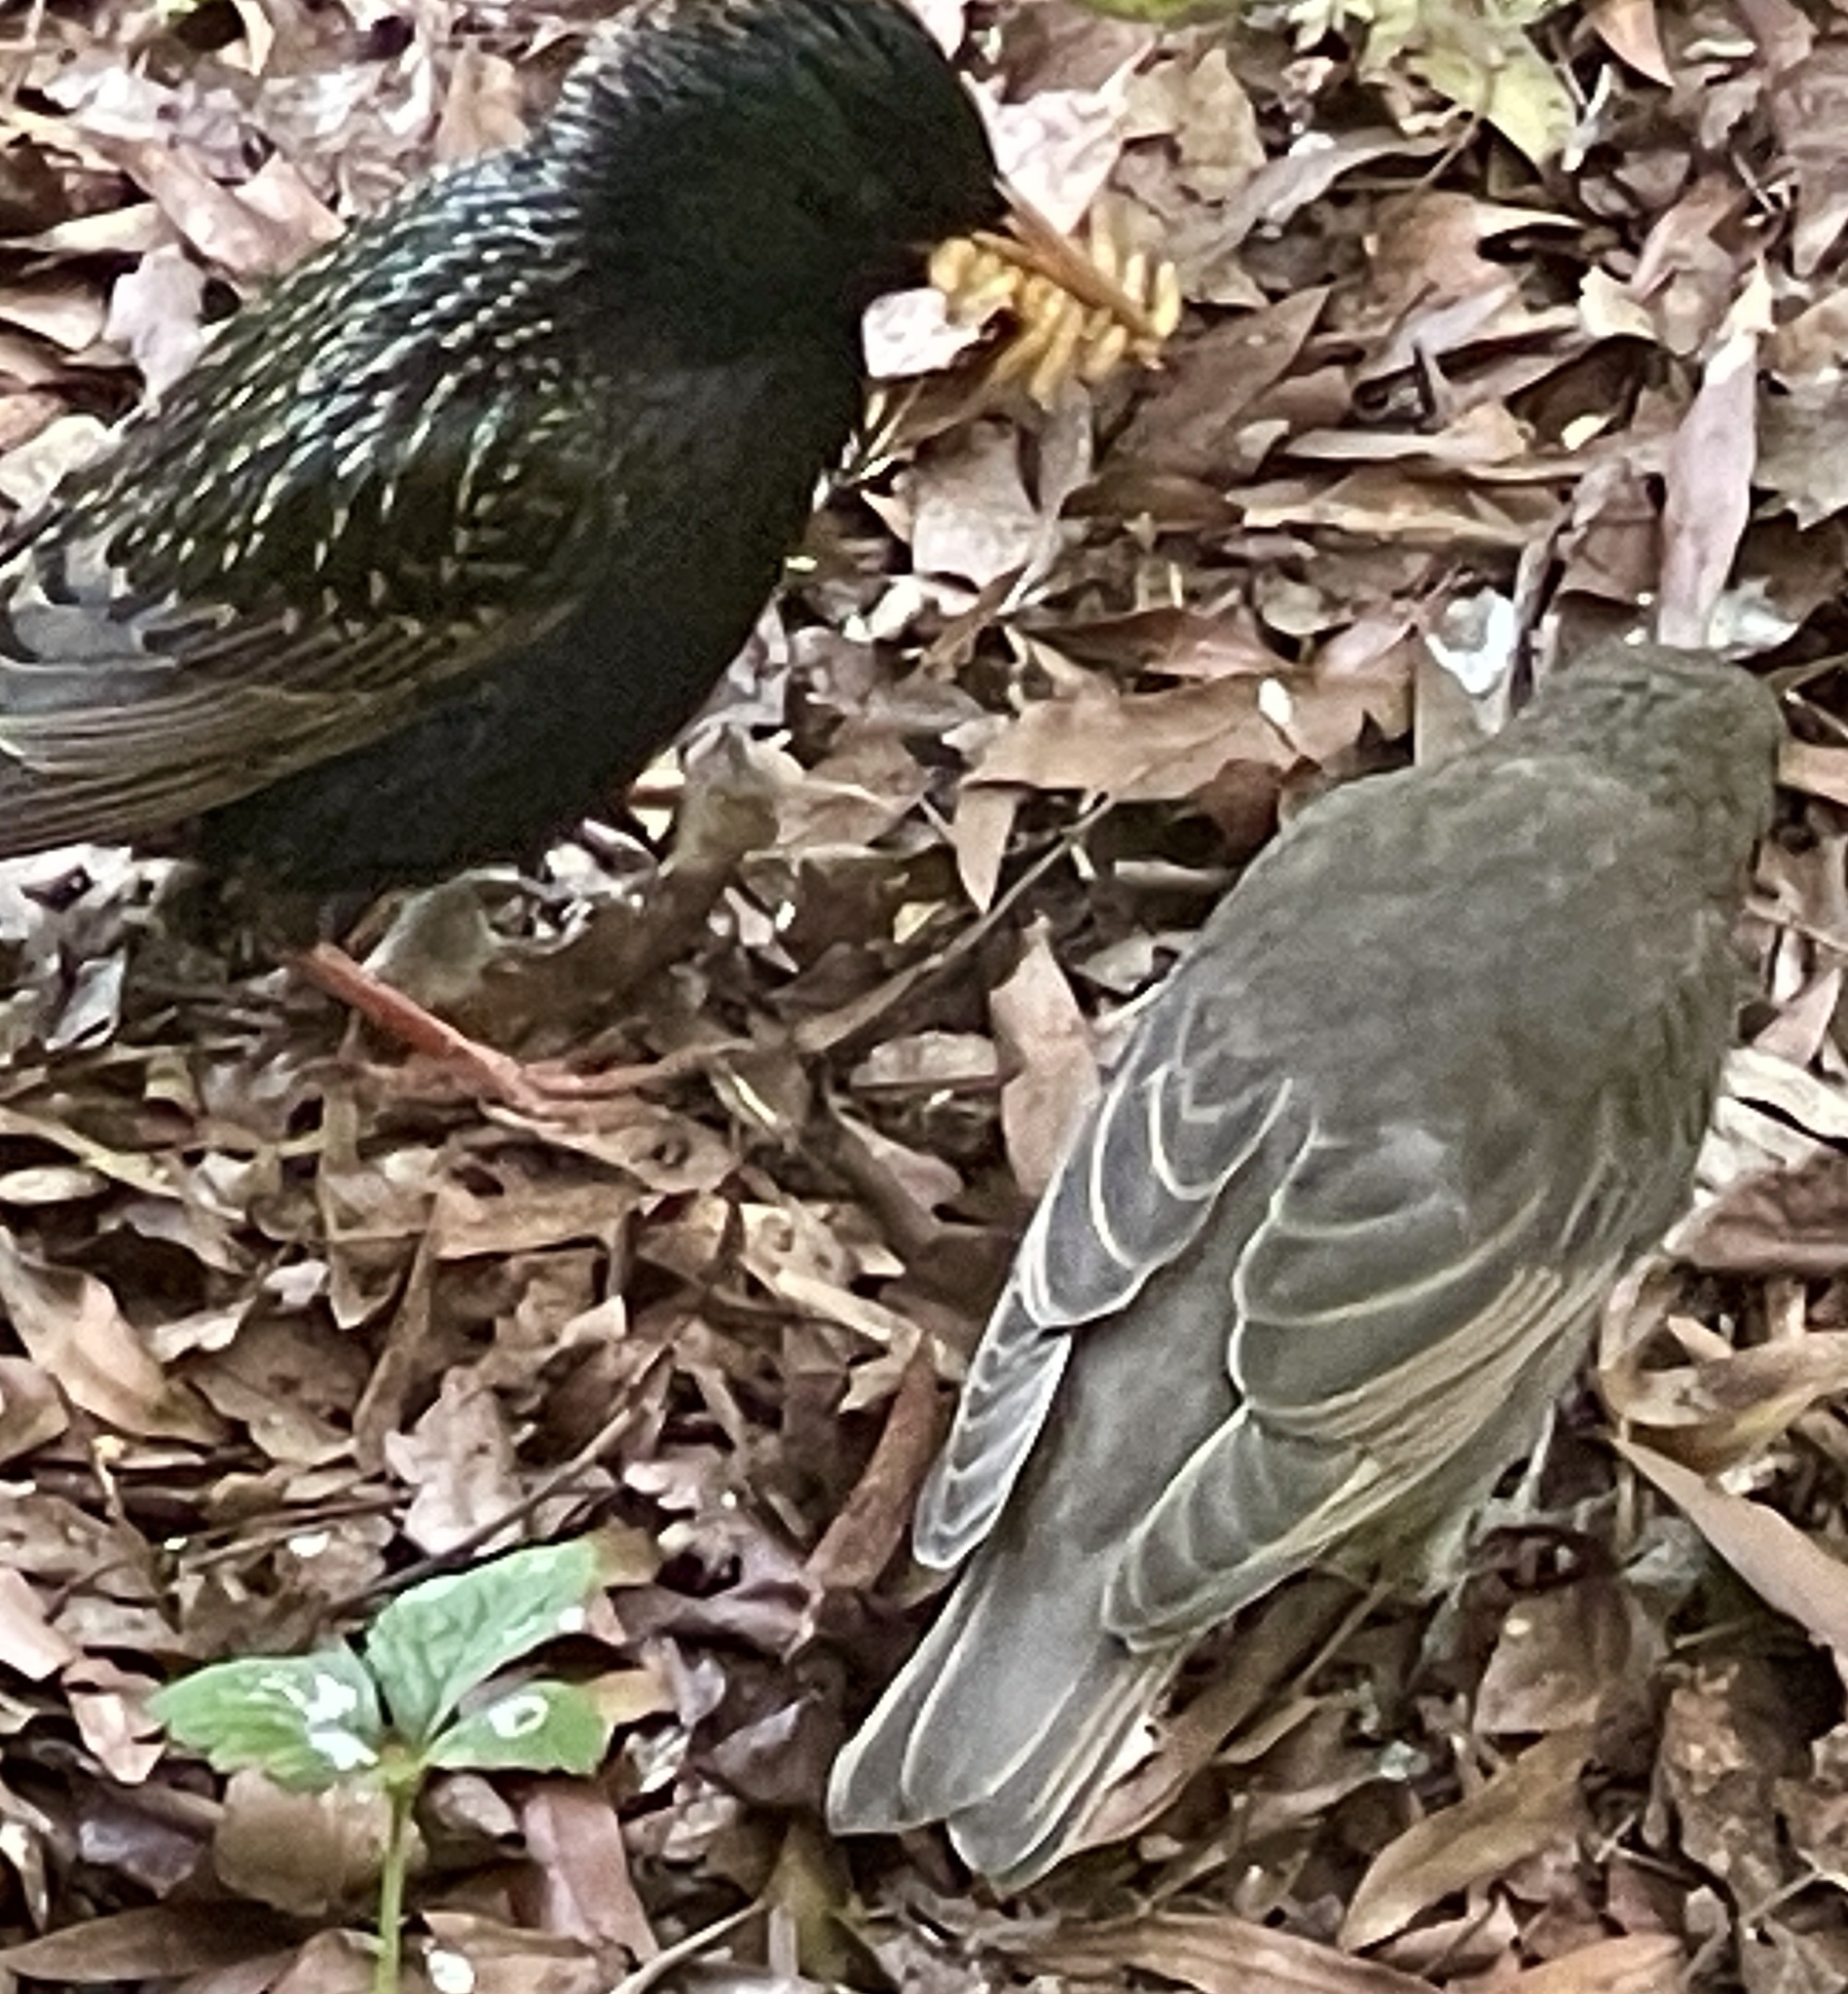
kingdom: Animalia
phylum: Chordata
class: Aves
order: Passeriformes
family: Sturnidae
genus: Sturnus
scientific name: Sturnus vulgaris
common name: Common starling
